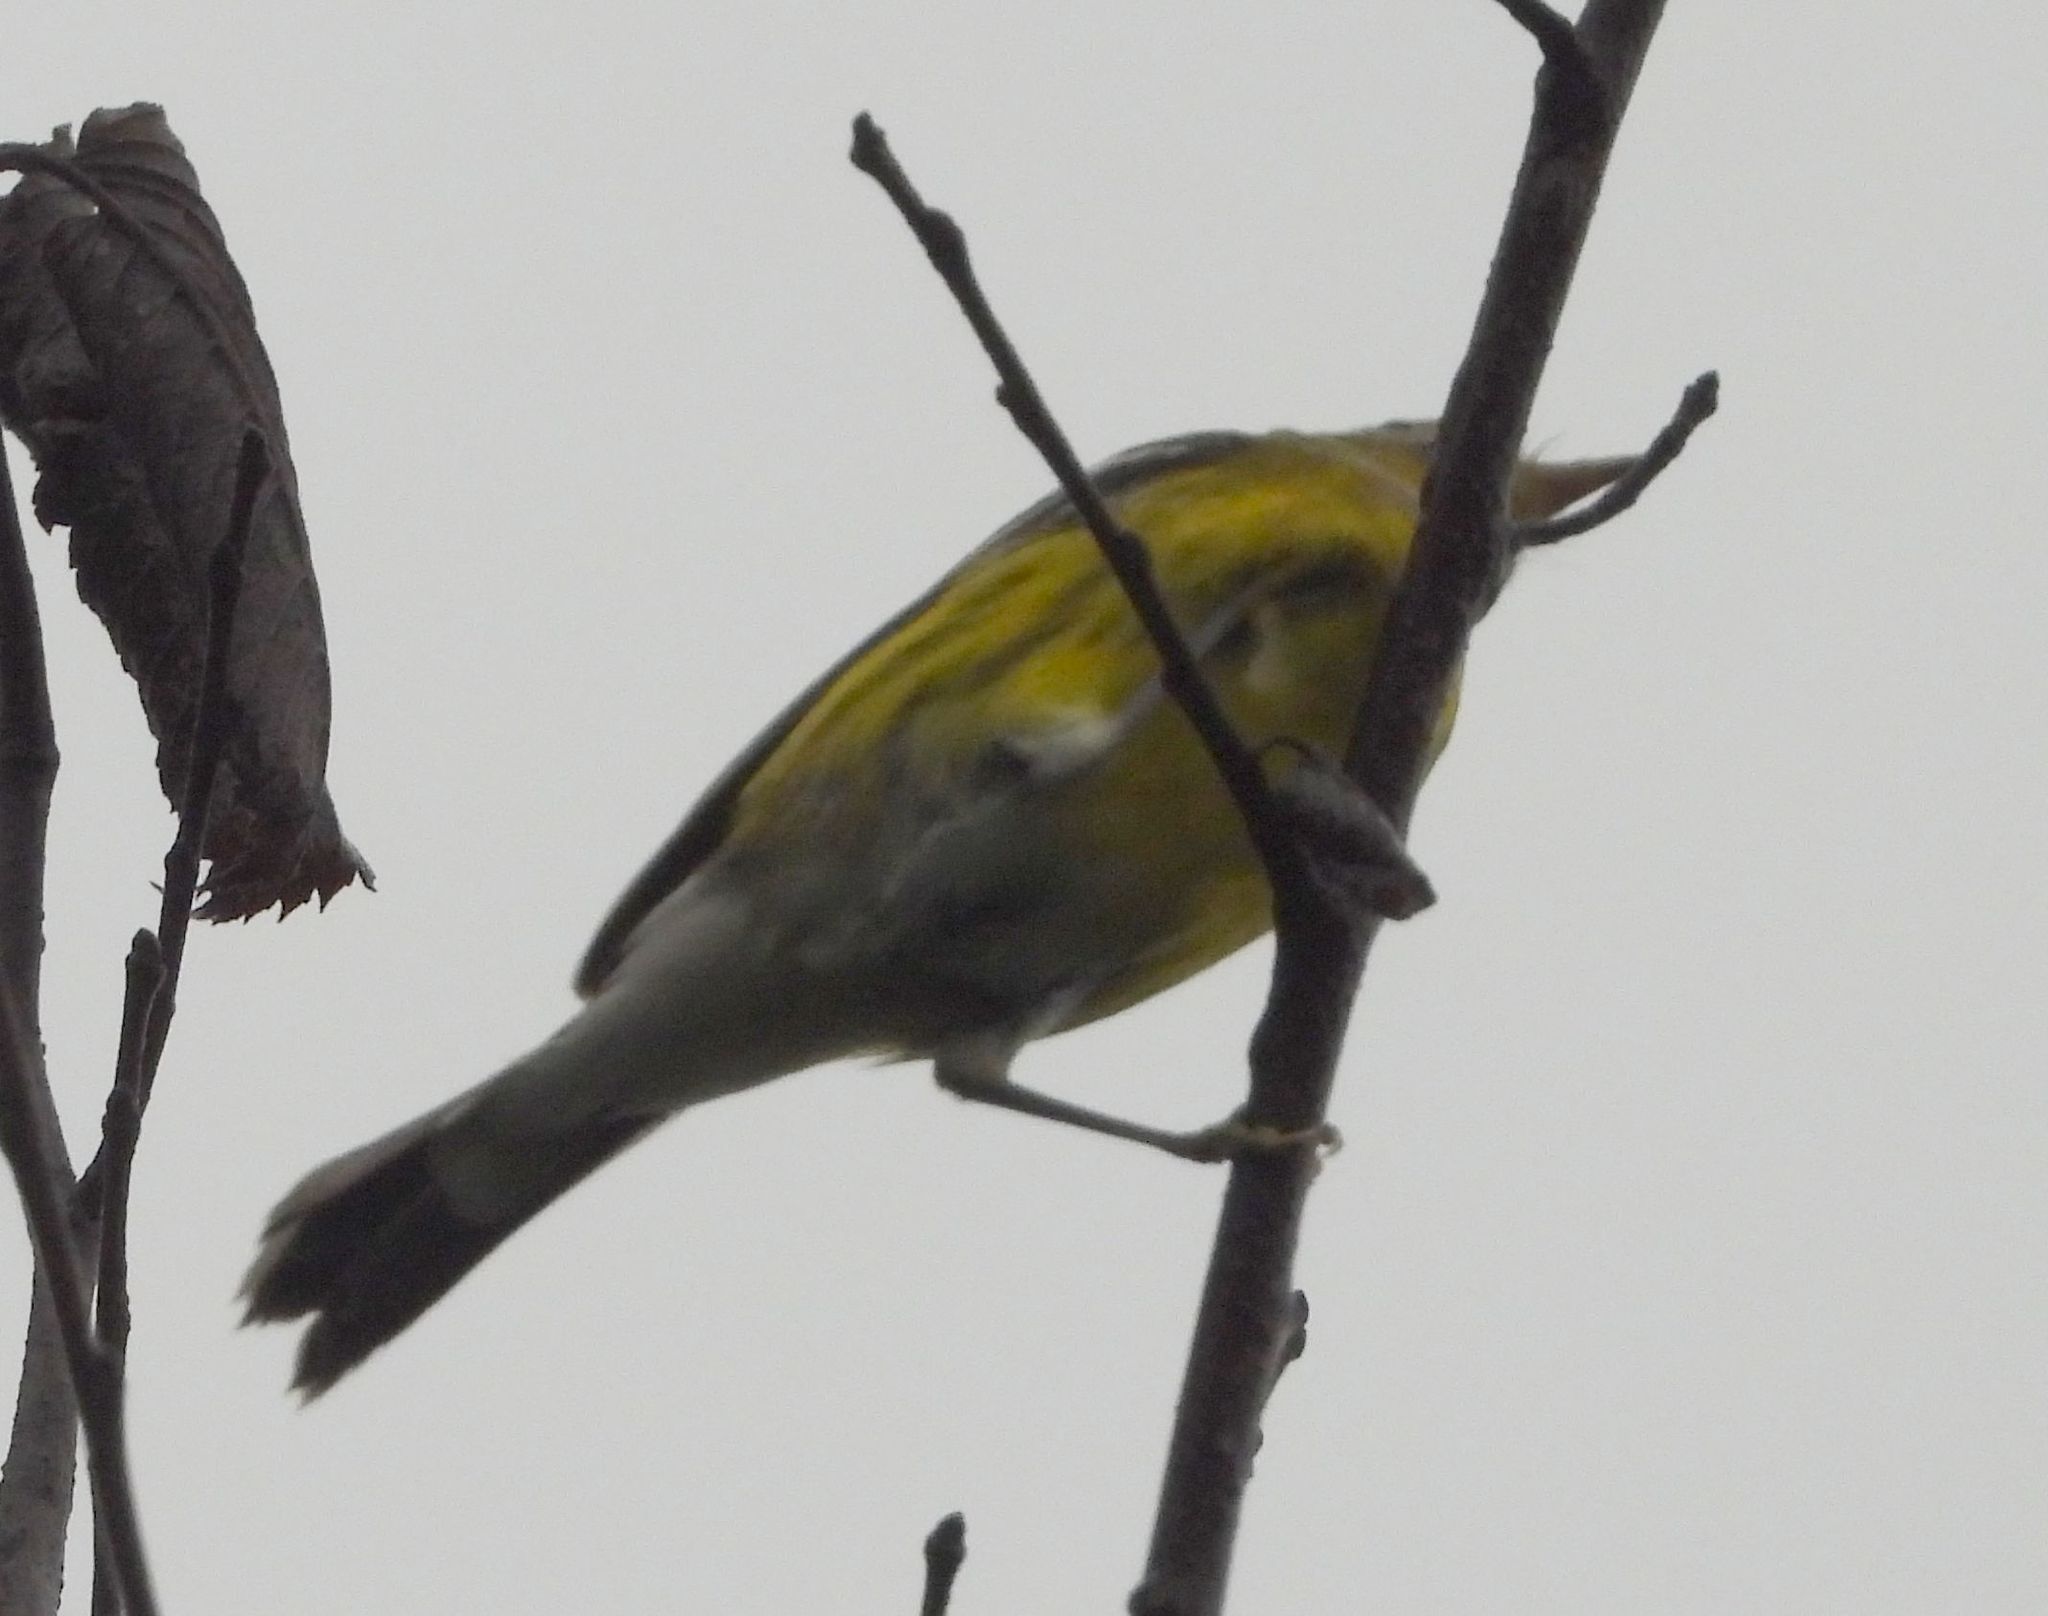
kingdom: Animalia
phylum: Chordata
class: Aves
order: Passeriformes
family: Parulidae
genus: Setophaga
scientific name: Setophaga magnolia
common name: Magnolia warbler
